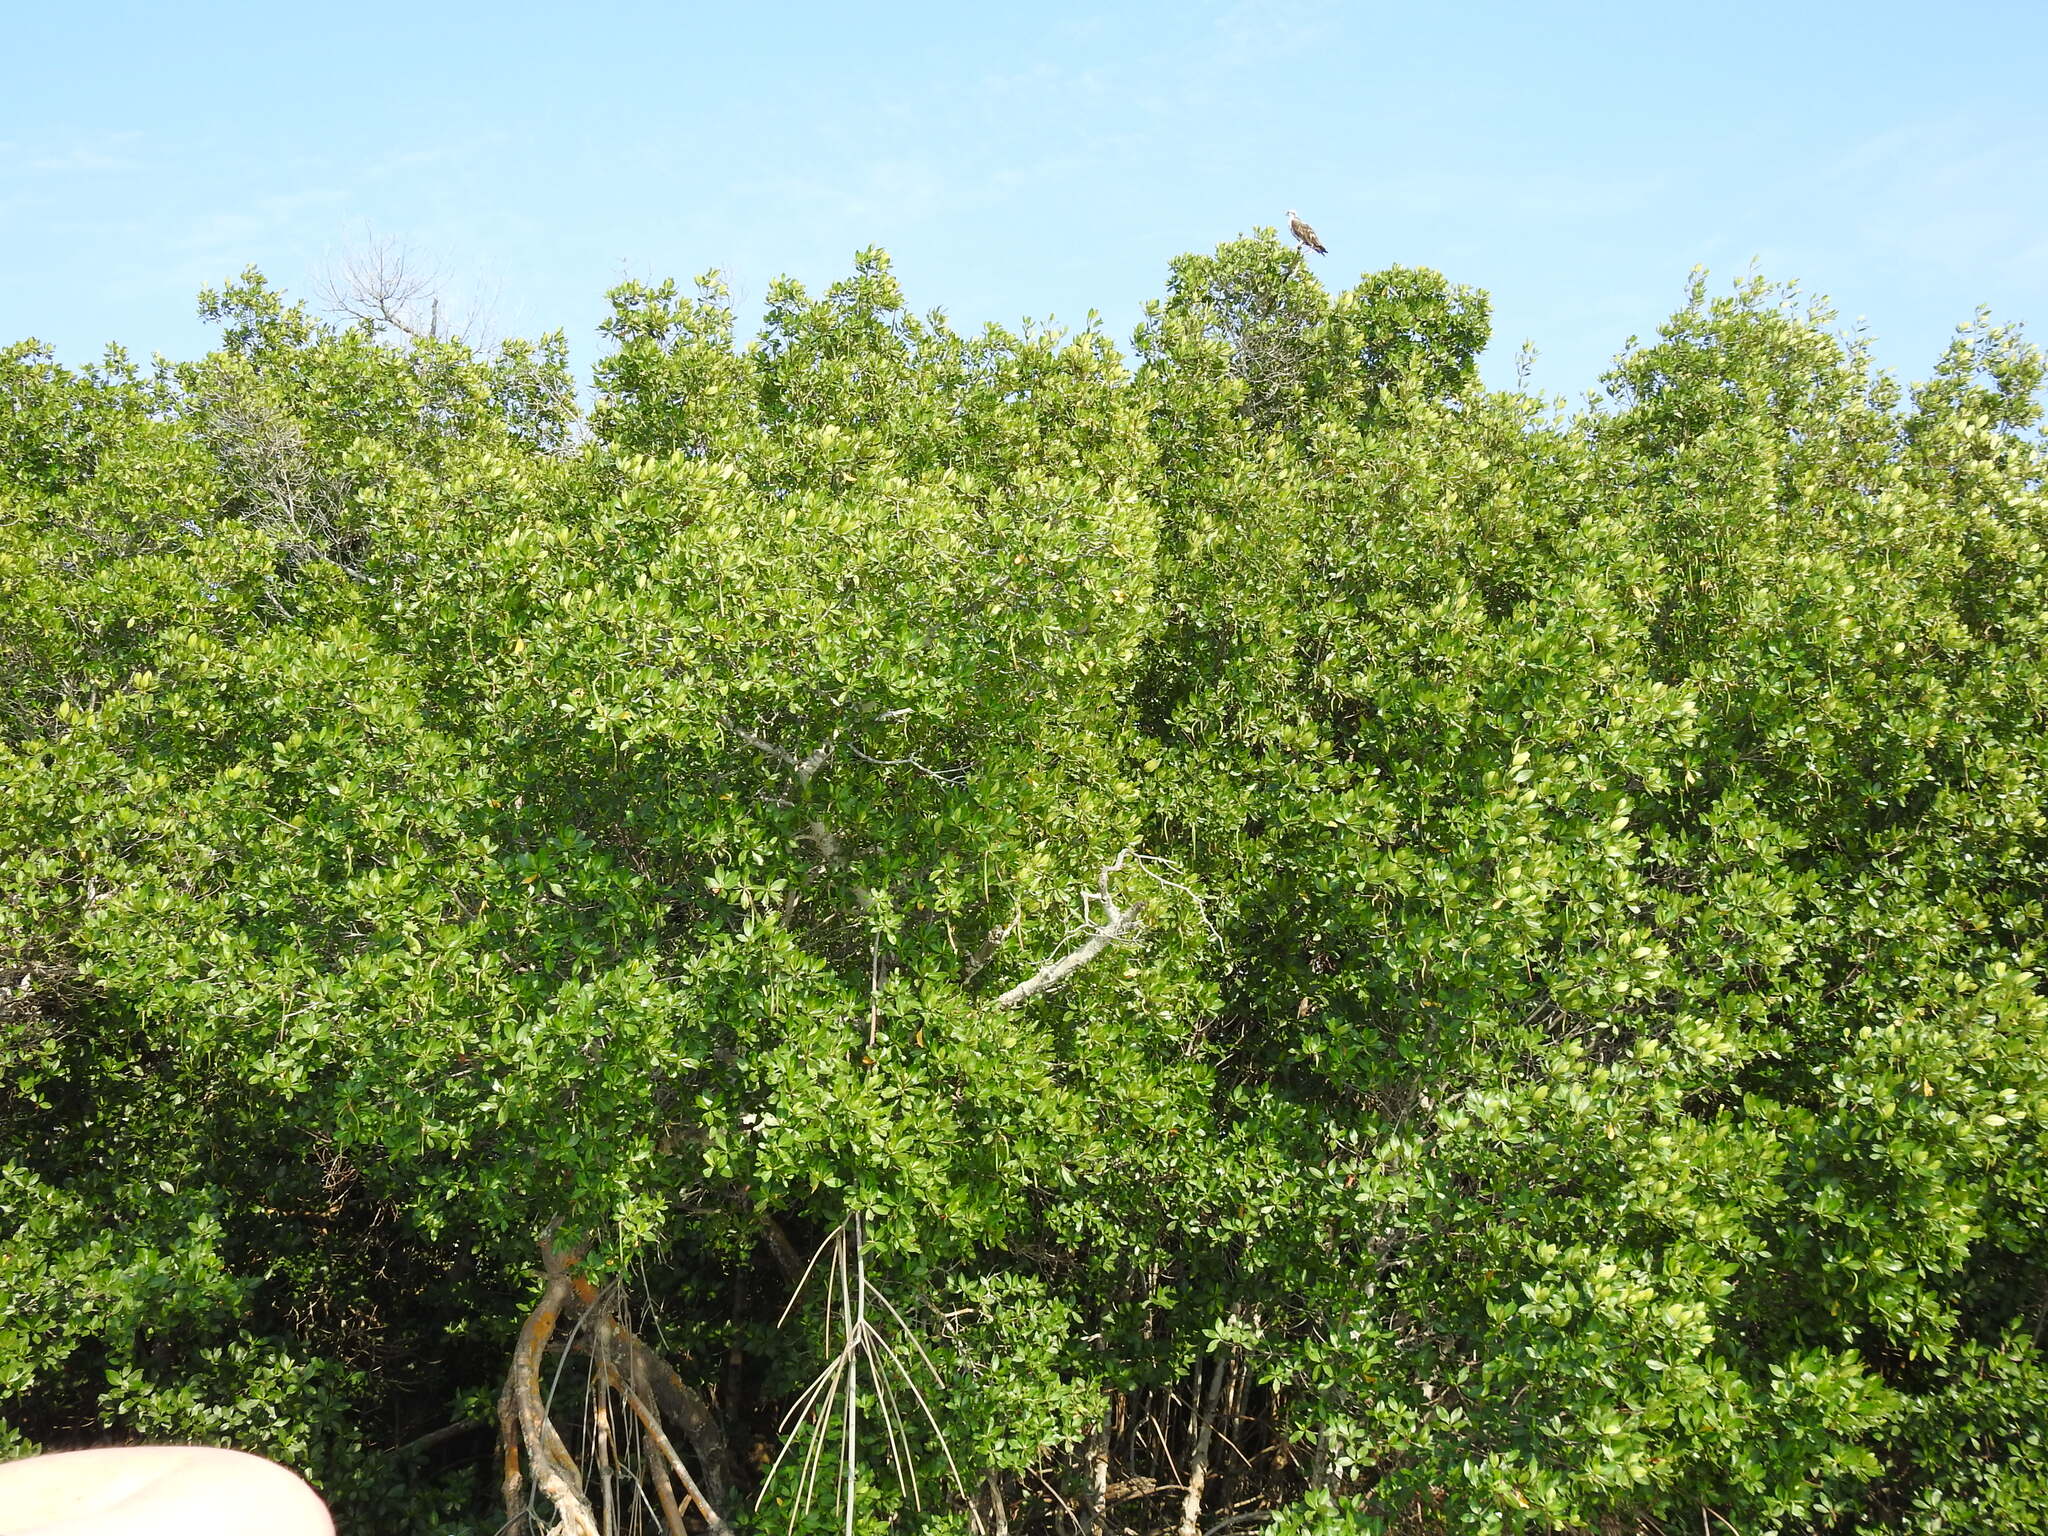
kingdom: Plantae
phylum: Tracheophyta
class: Magnoliopsida
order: Malpighiales
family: Rhizophoraceae
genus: Rhizophora
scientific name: Rhizophora mangle
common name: Red mangrove
